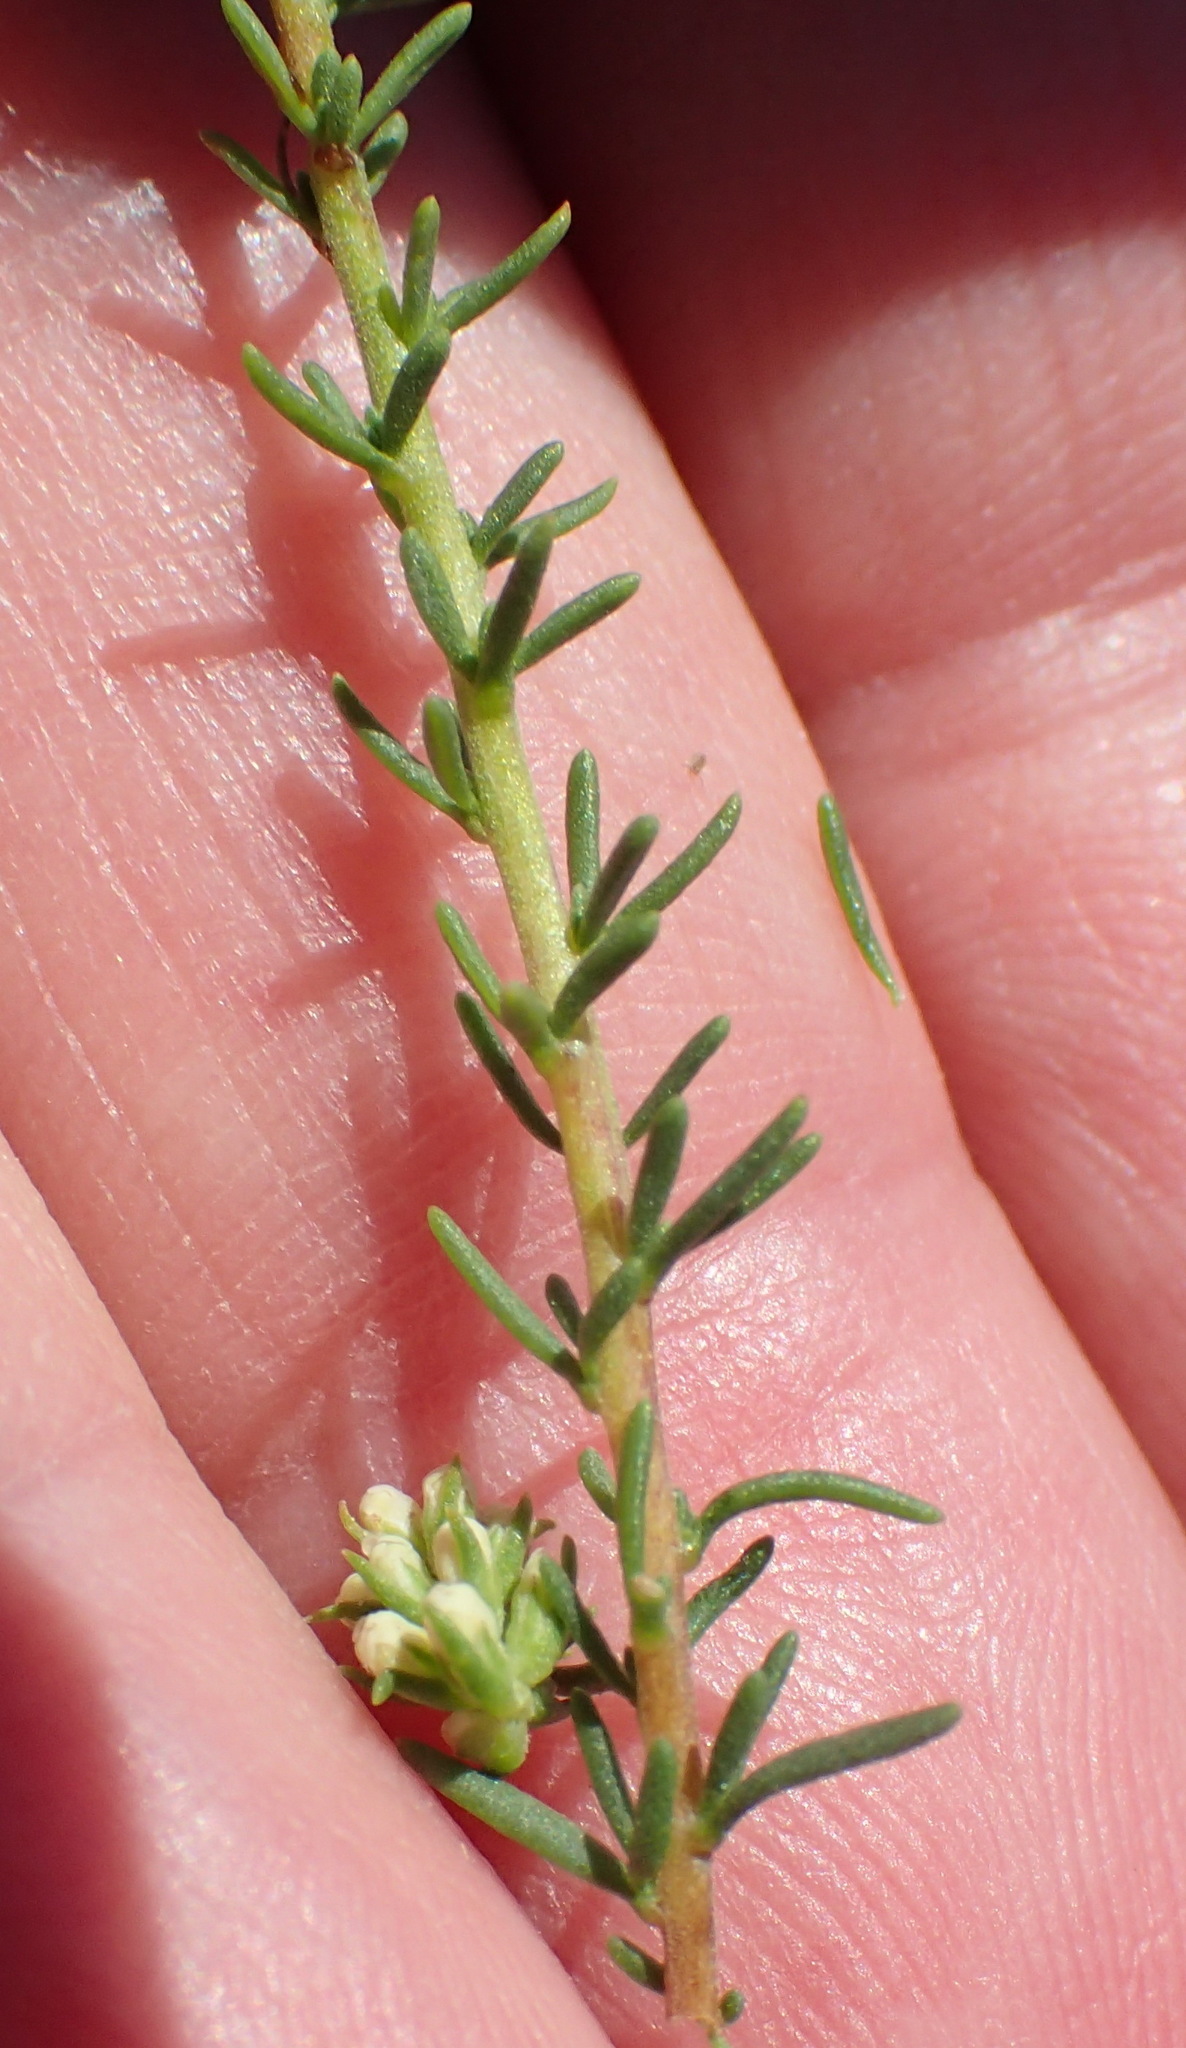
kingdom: Plantae
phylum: Tracheophyta
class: Magnoliopsida
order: Lamiales
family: Scrophulariaceae
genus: Selago
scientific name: Selago distans
